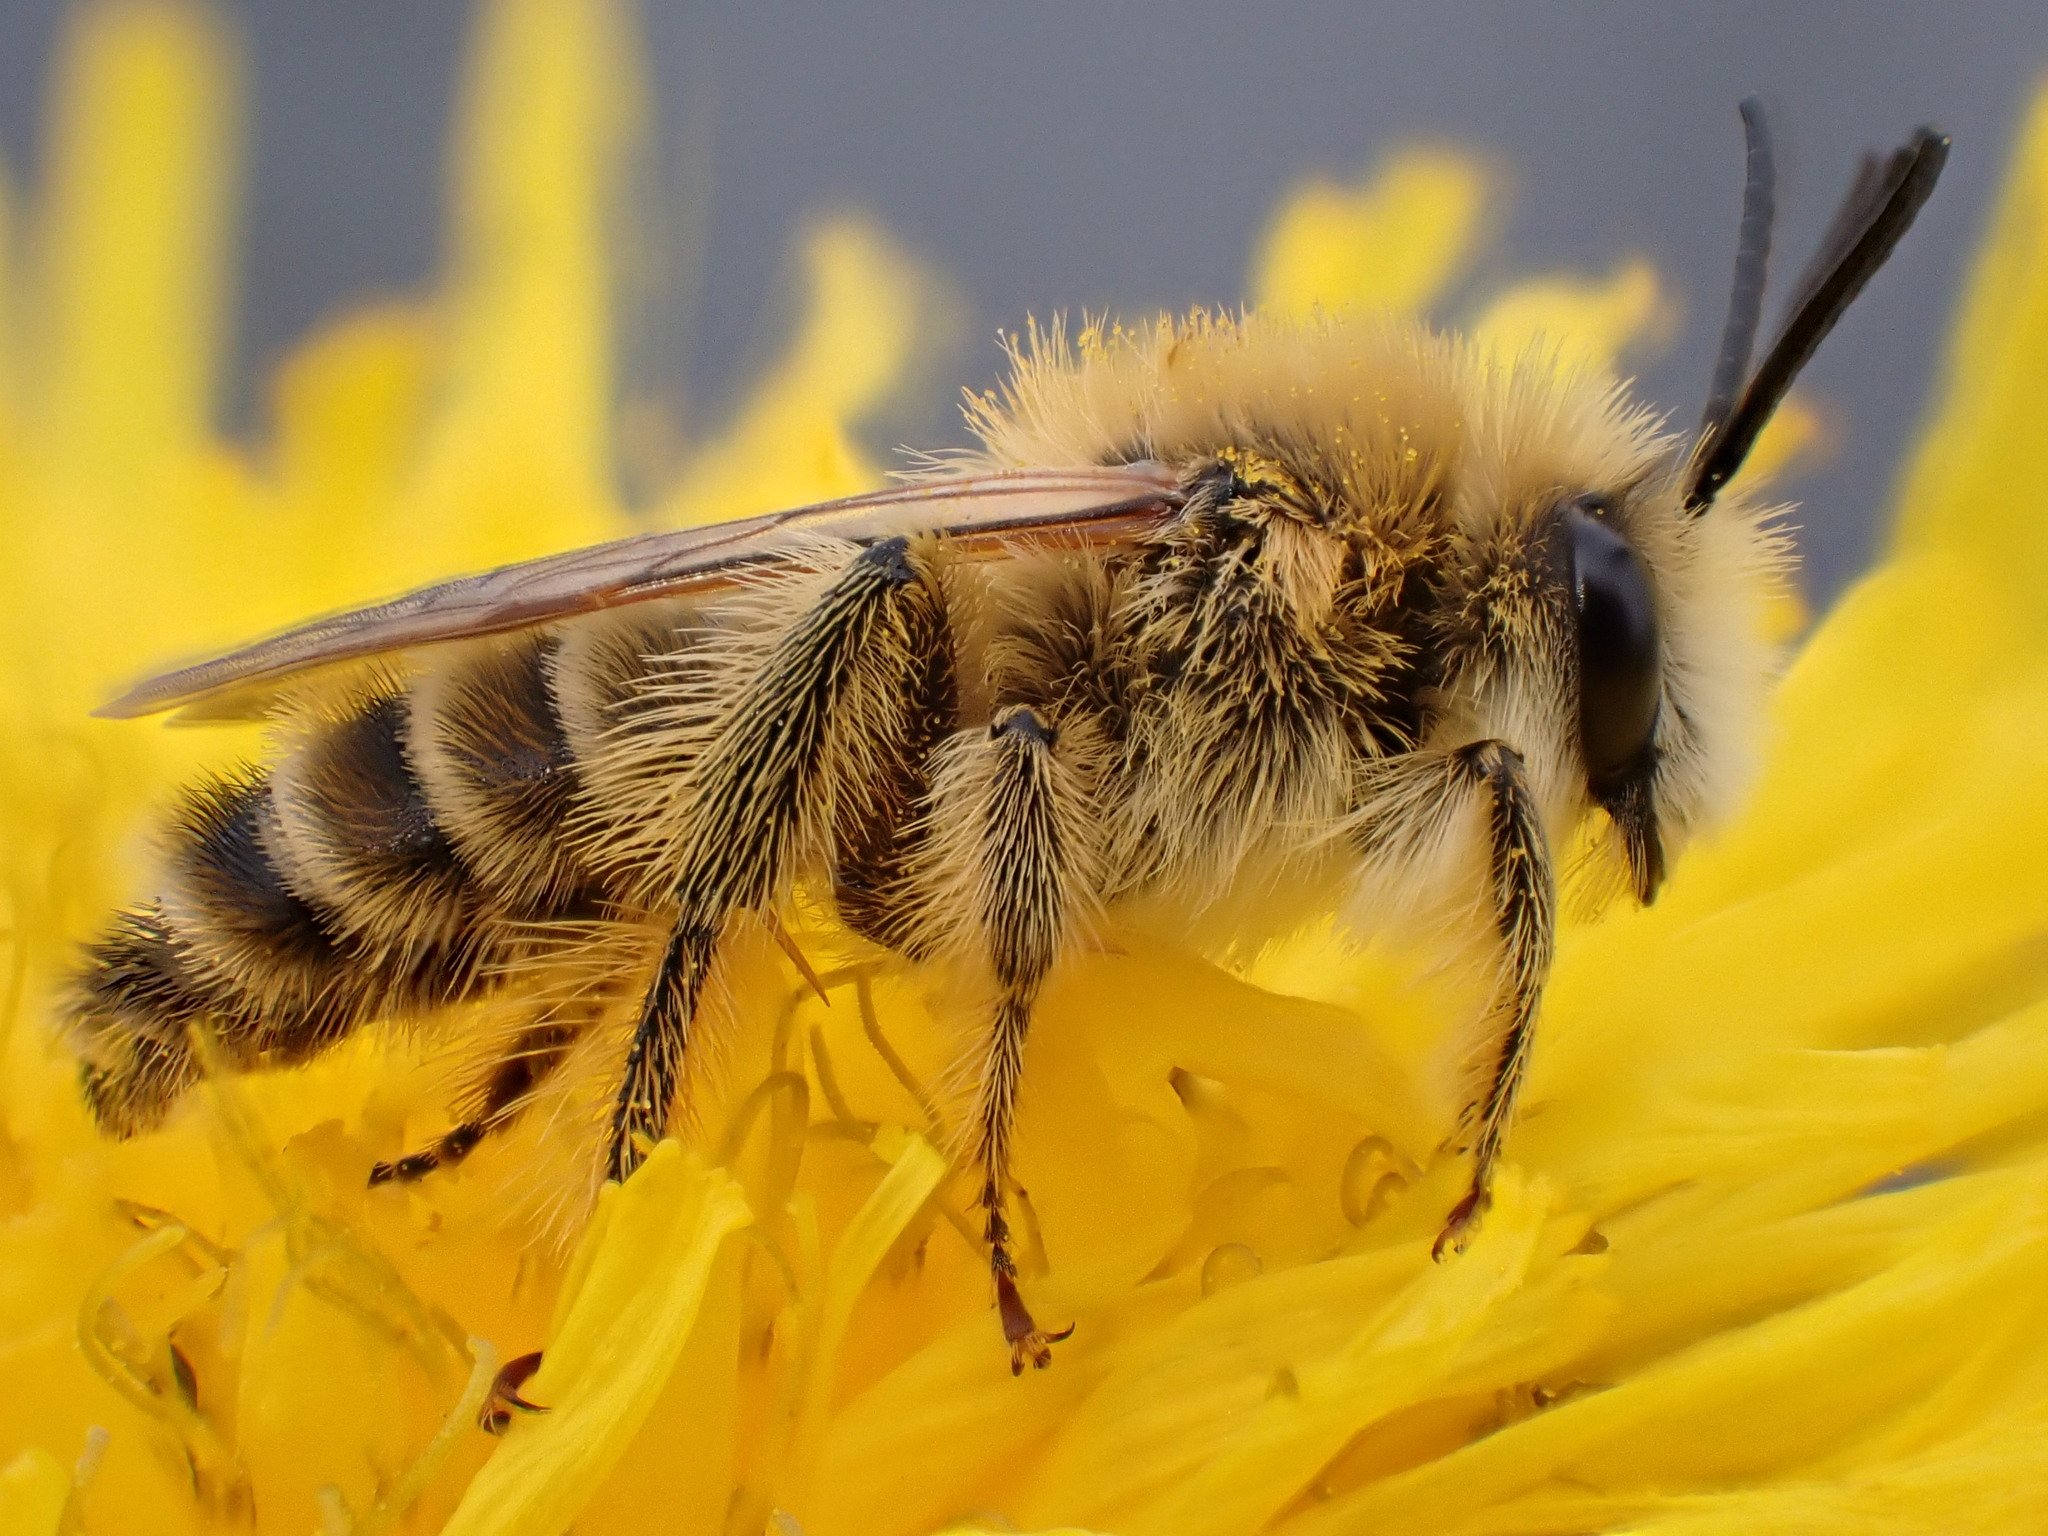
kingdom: Animalia
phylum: Arthropoda
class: Insecta
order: Hymenoptera
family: Melittidae
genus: Dasypoda
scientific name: Dasypoda hirtipes
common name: Pantaloon bee
